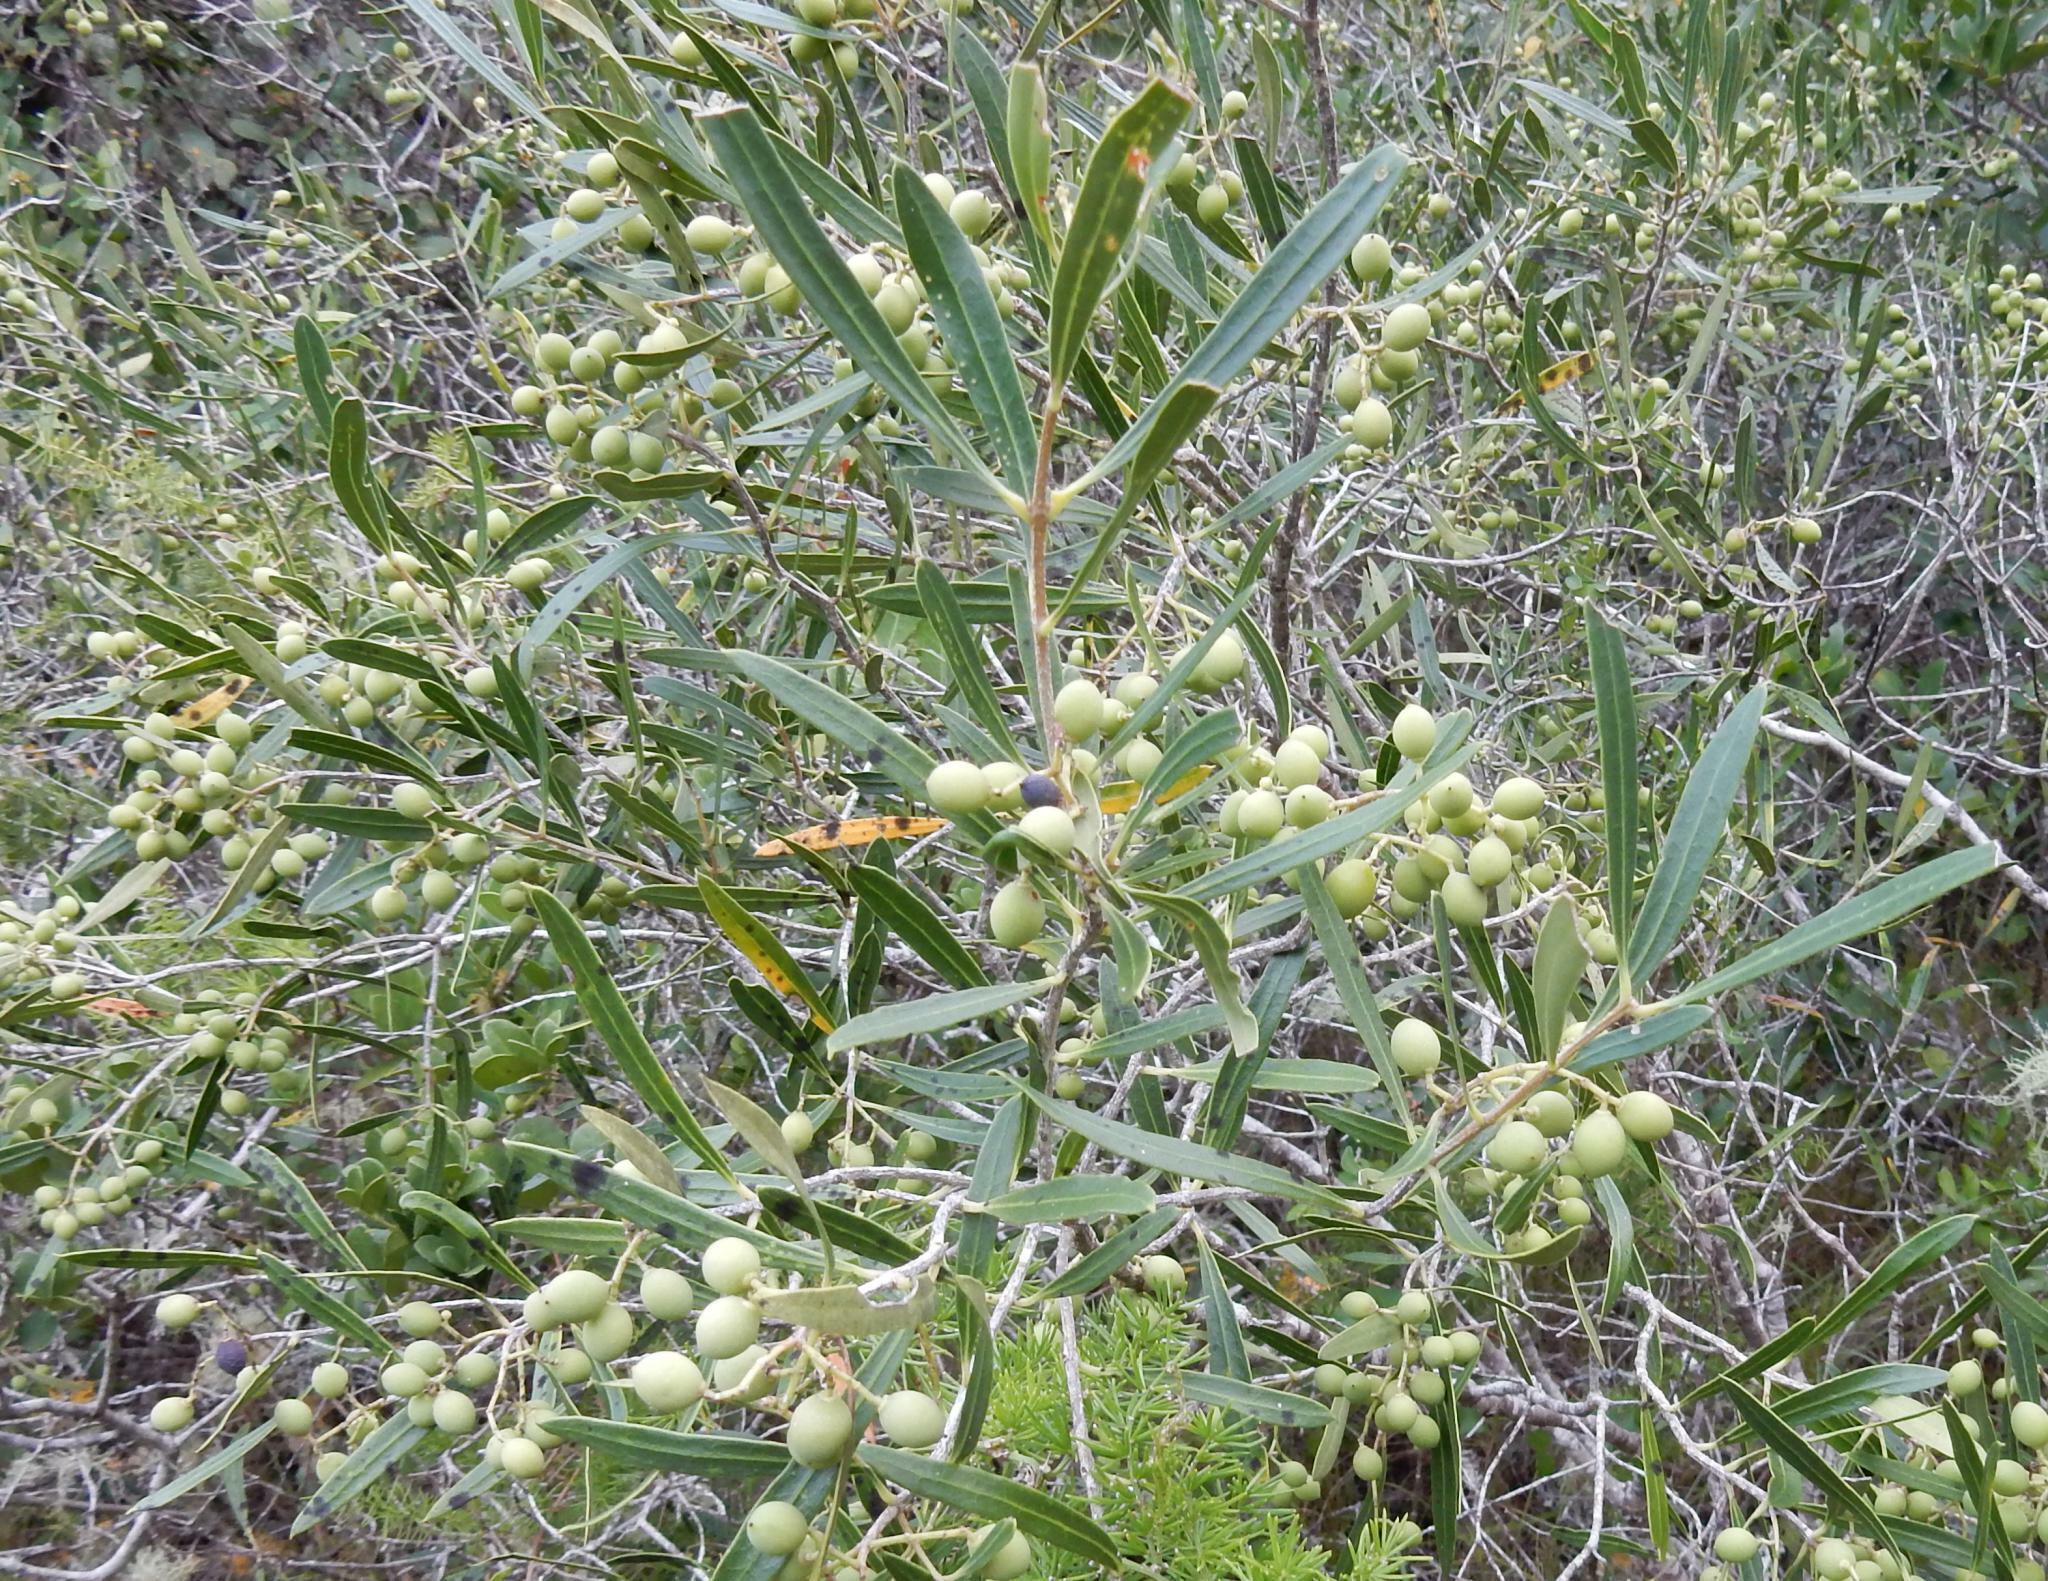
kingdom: Plantae
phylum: Tracheophyta
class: Magnoliopsida
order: Lamiales
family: Oleaceae
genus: Olea
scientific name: Olea exasperata
